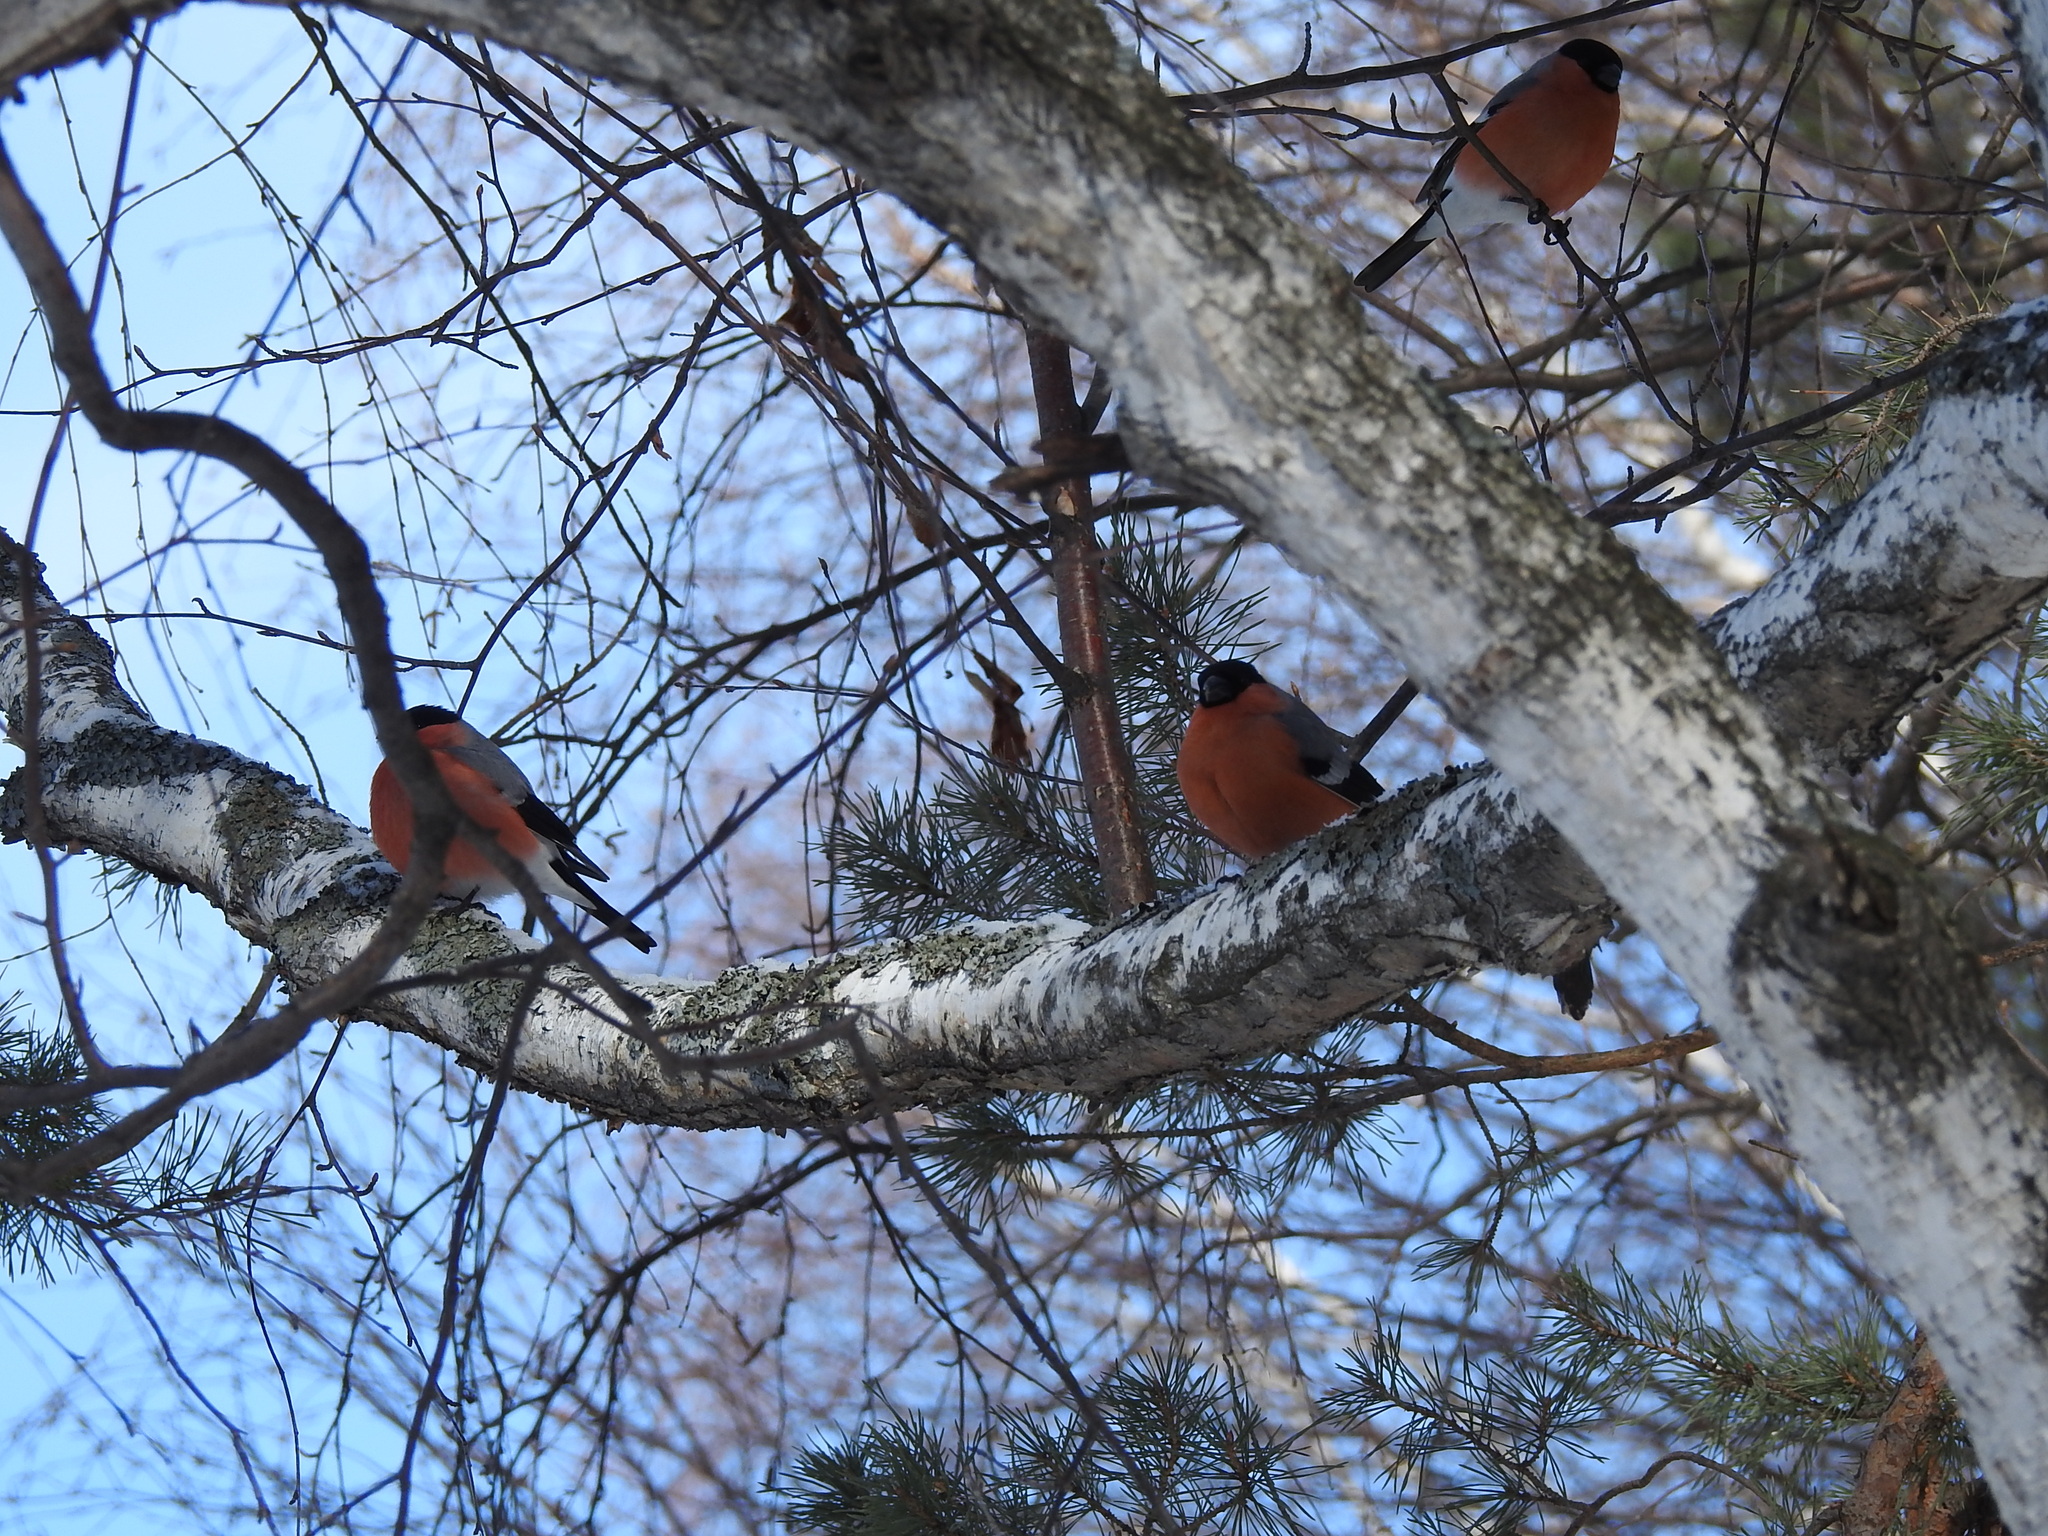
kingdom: Animalia
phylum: Chordata
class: Aves
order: Passeriformes
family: Fringillidae
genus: Pyrrhula
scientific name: Pyrrhula pyrrhula
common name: Eurasian bullfinch
